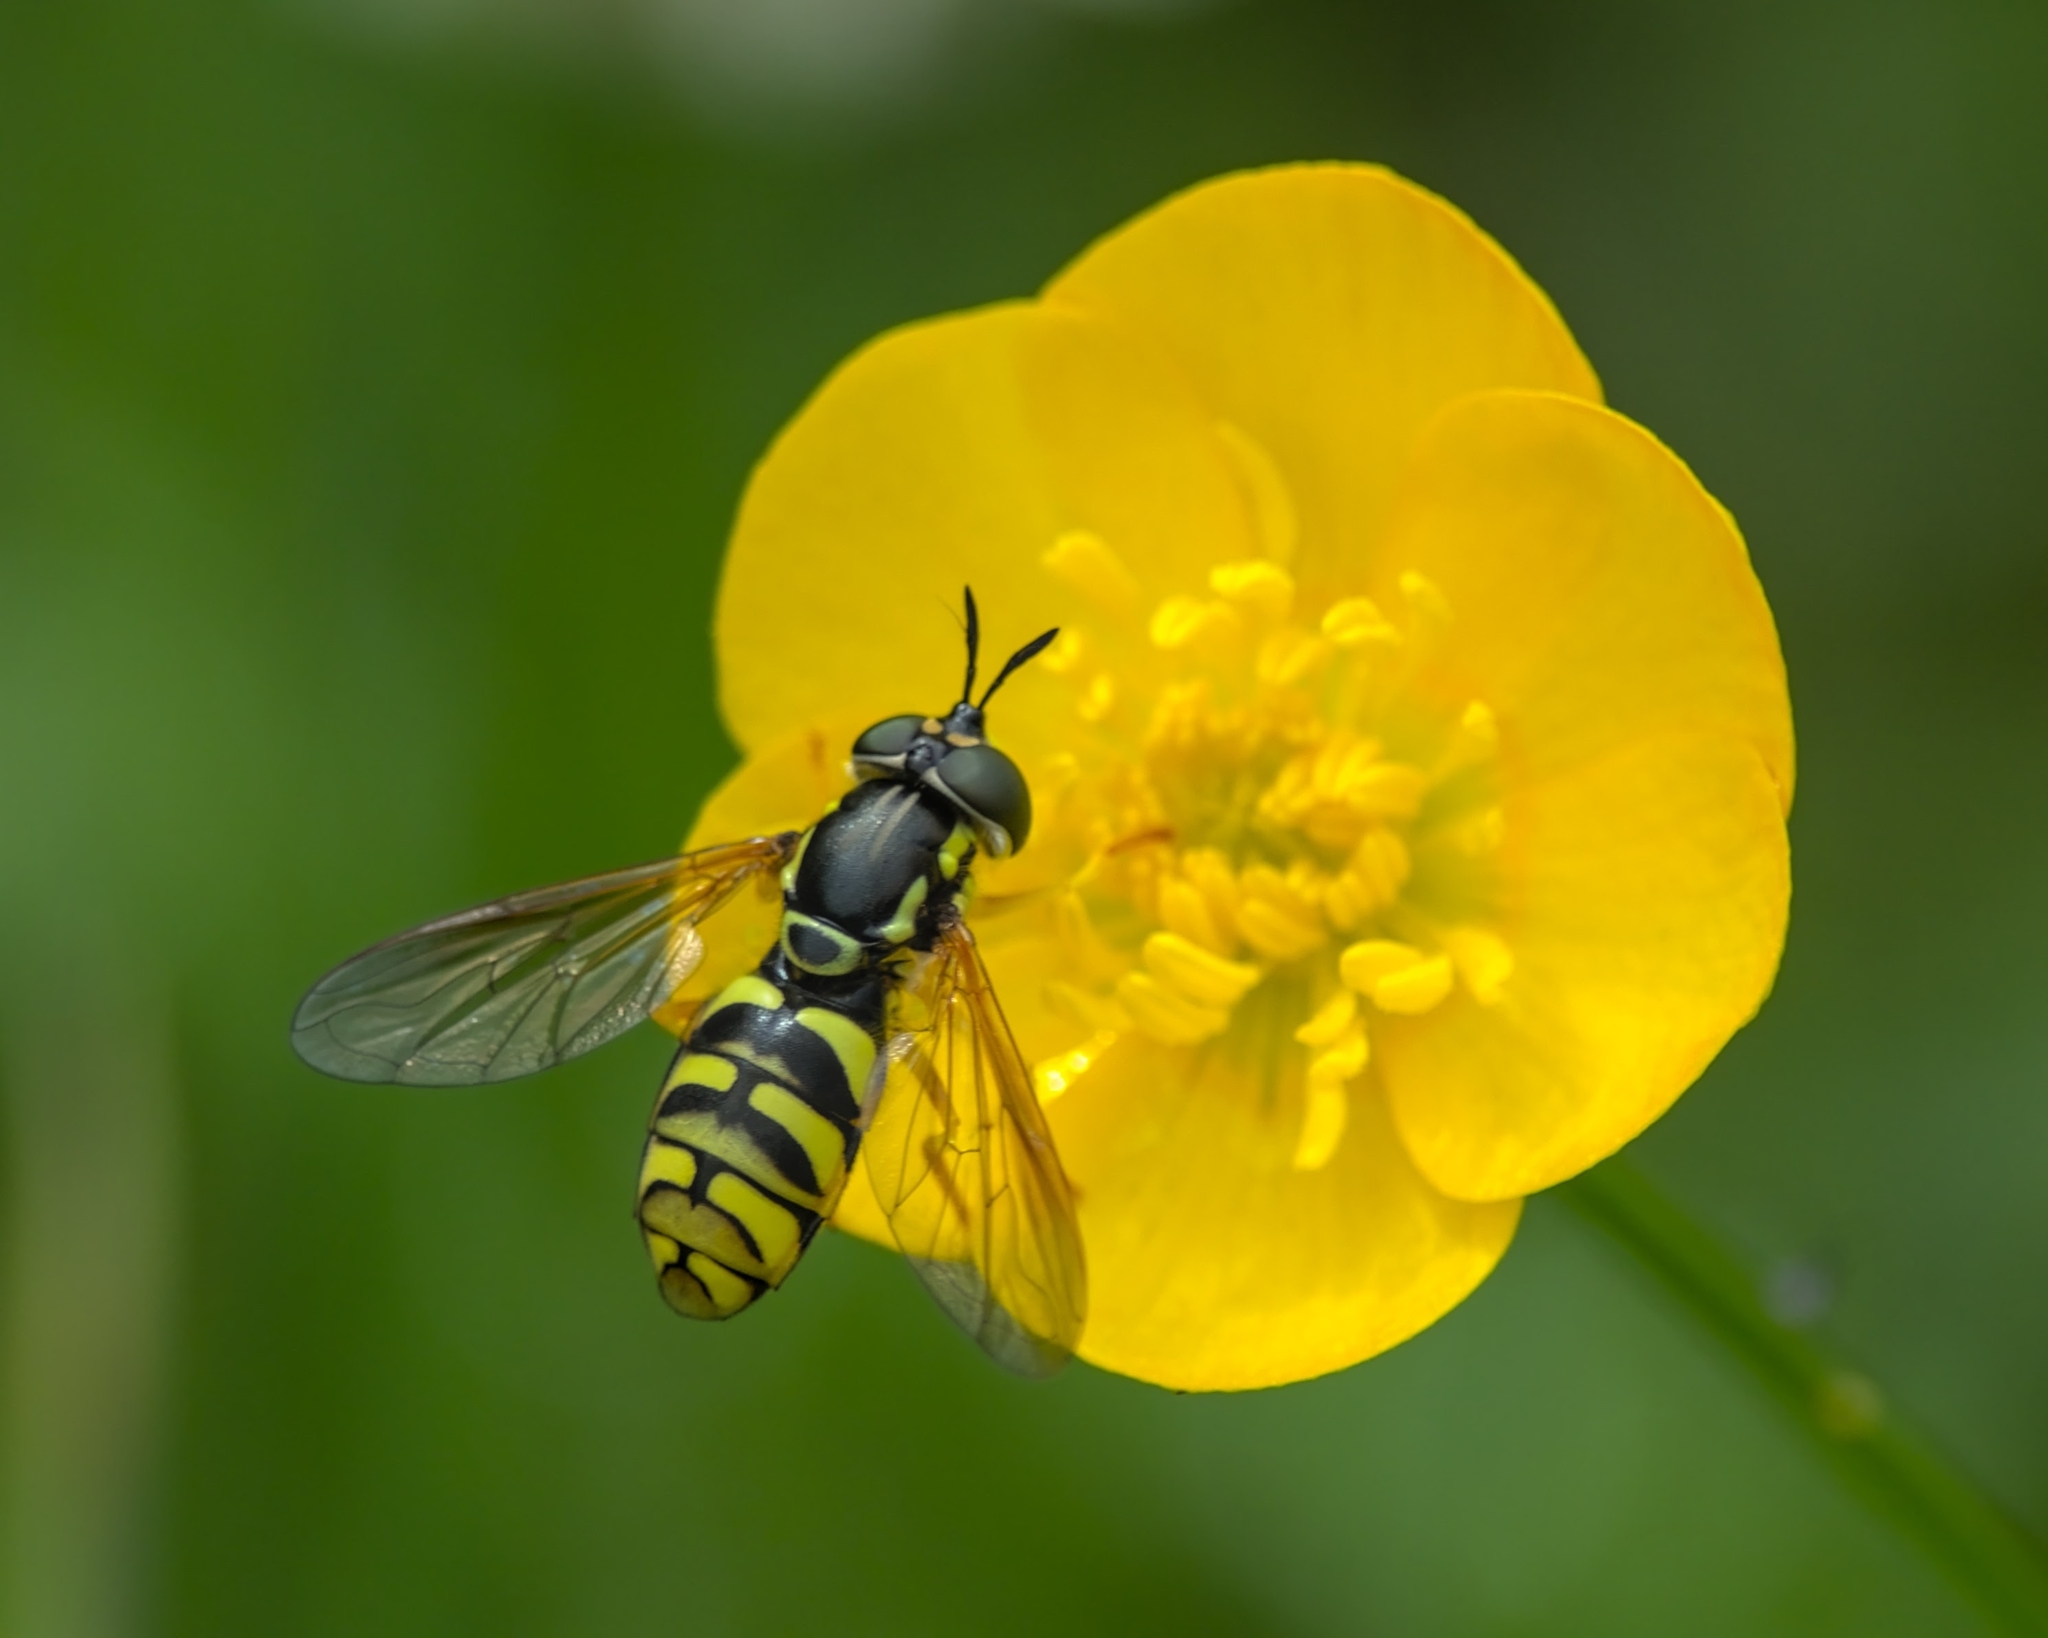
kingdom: Animalia
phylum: Arthropoda
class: Insecta
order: Diptera
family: Syrphidae
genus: Chrysotoxum
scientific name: Chrysotoxum festivum
